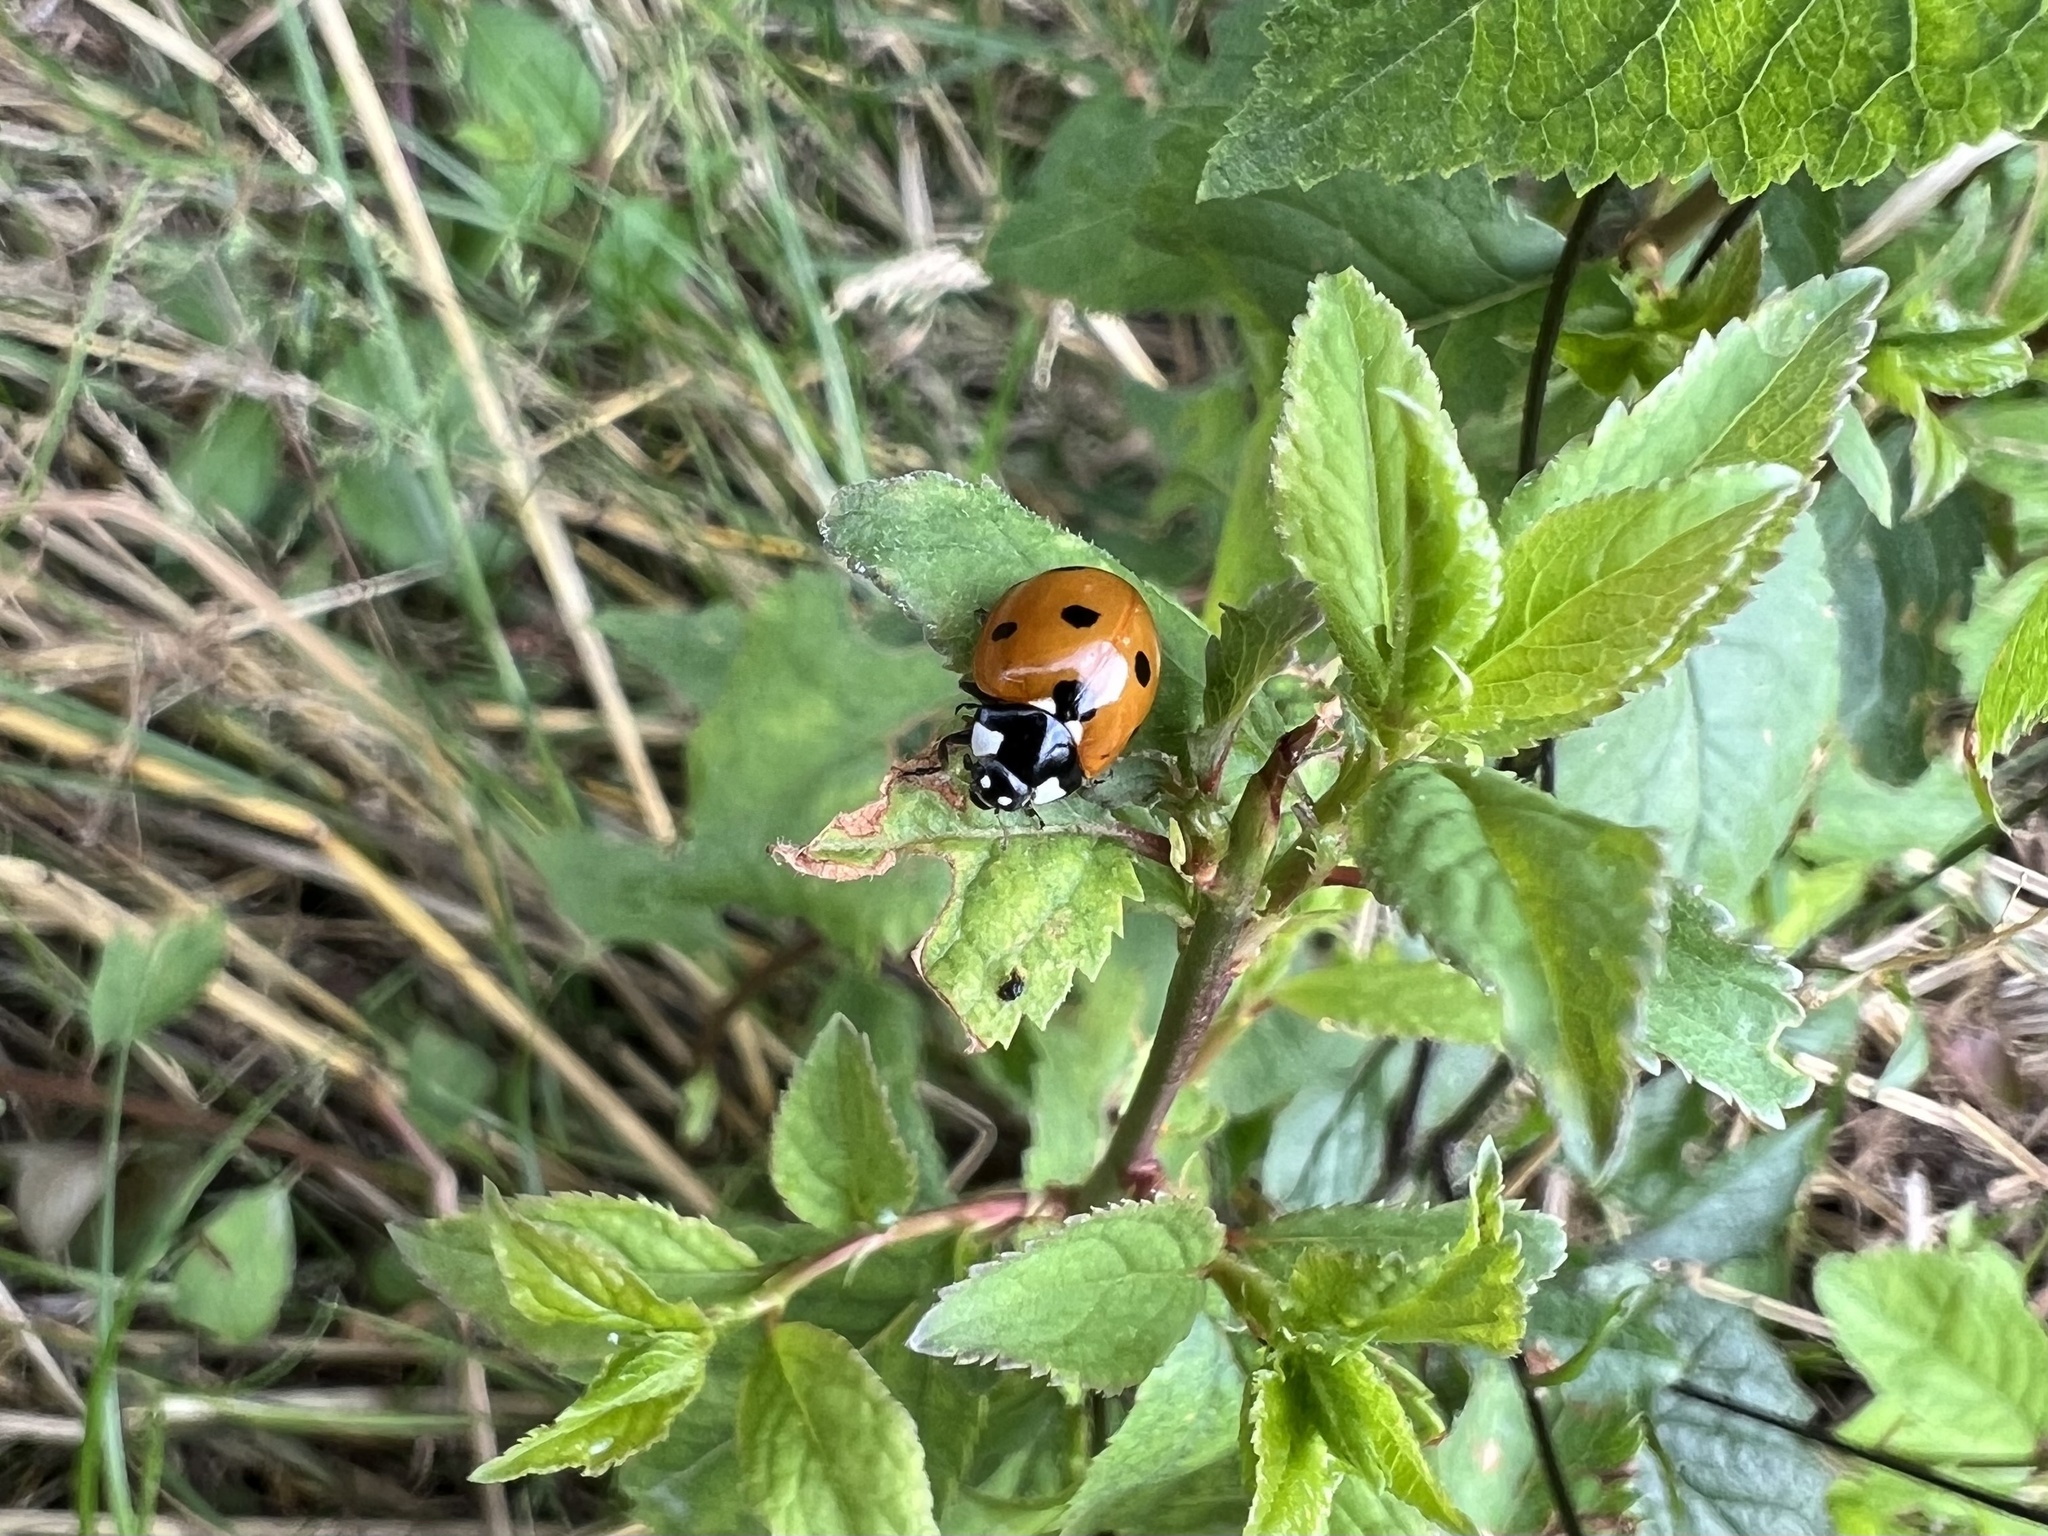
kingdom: Animalia
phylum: Arthropoda
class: Insecta
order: Coleoptera
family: Coccinellidae
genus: Coccinella
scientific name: Coccinella septempunctata
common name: Sevenspotted lady beetle
